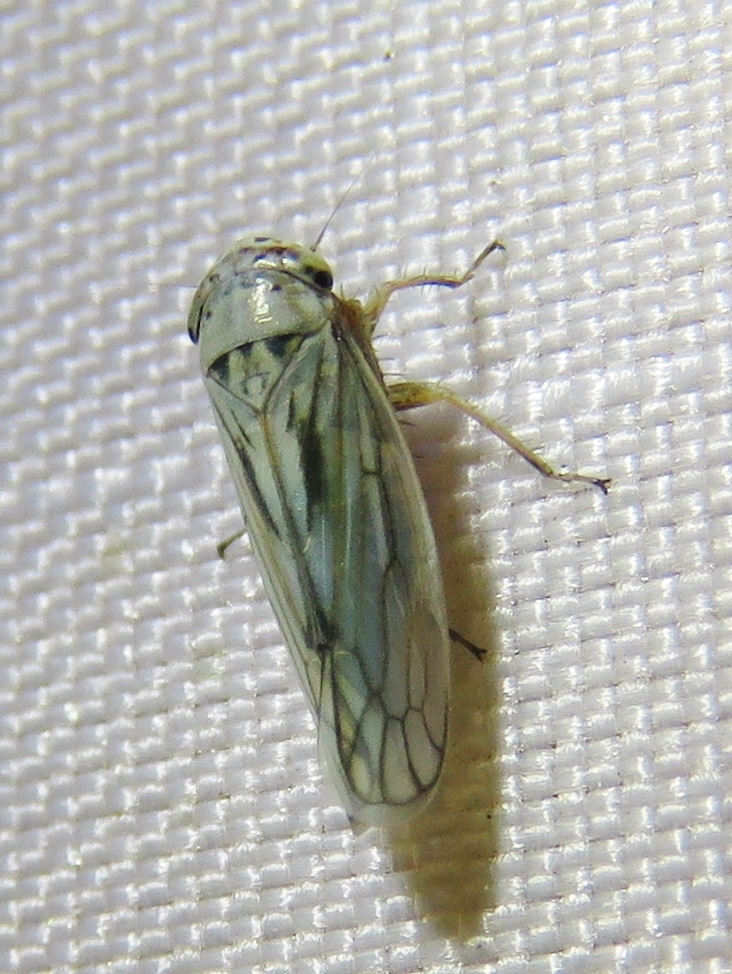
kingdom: Animalia
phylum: Arthropoda
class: Insecta
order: Hemiptera
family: Cicadellidae
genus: Exitianus
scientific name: Exitianus exitiosus
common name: Gray lawn leafhopper
